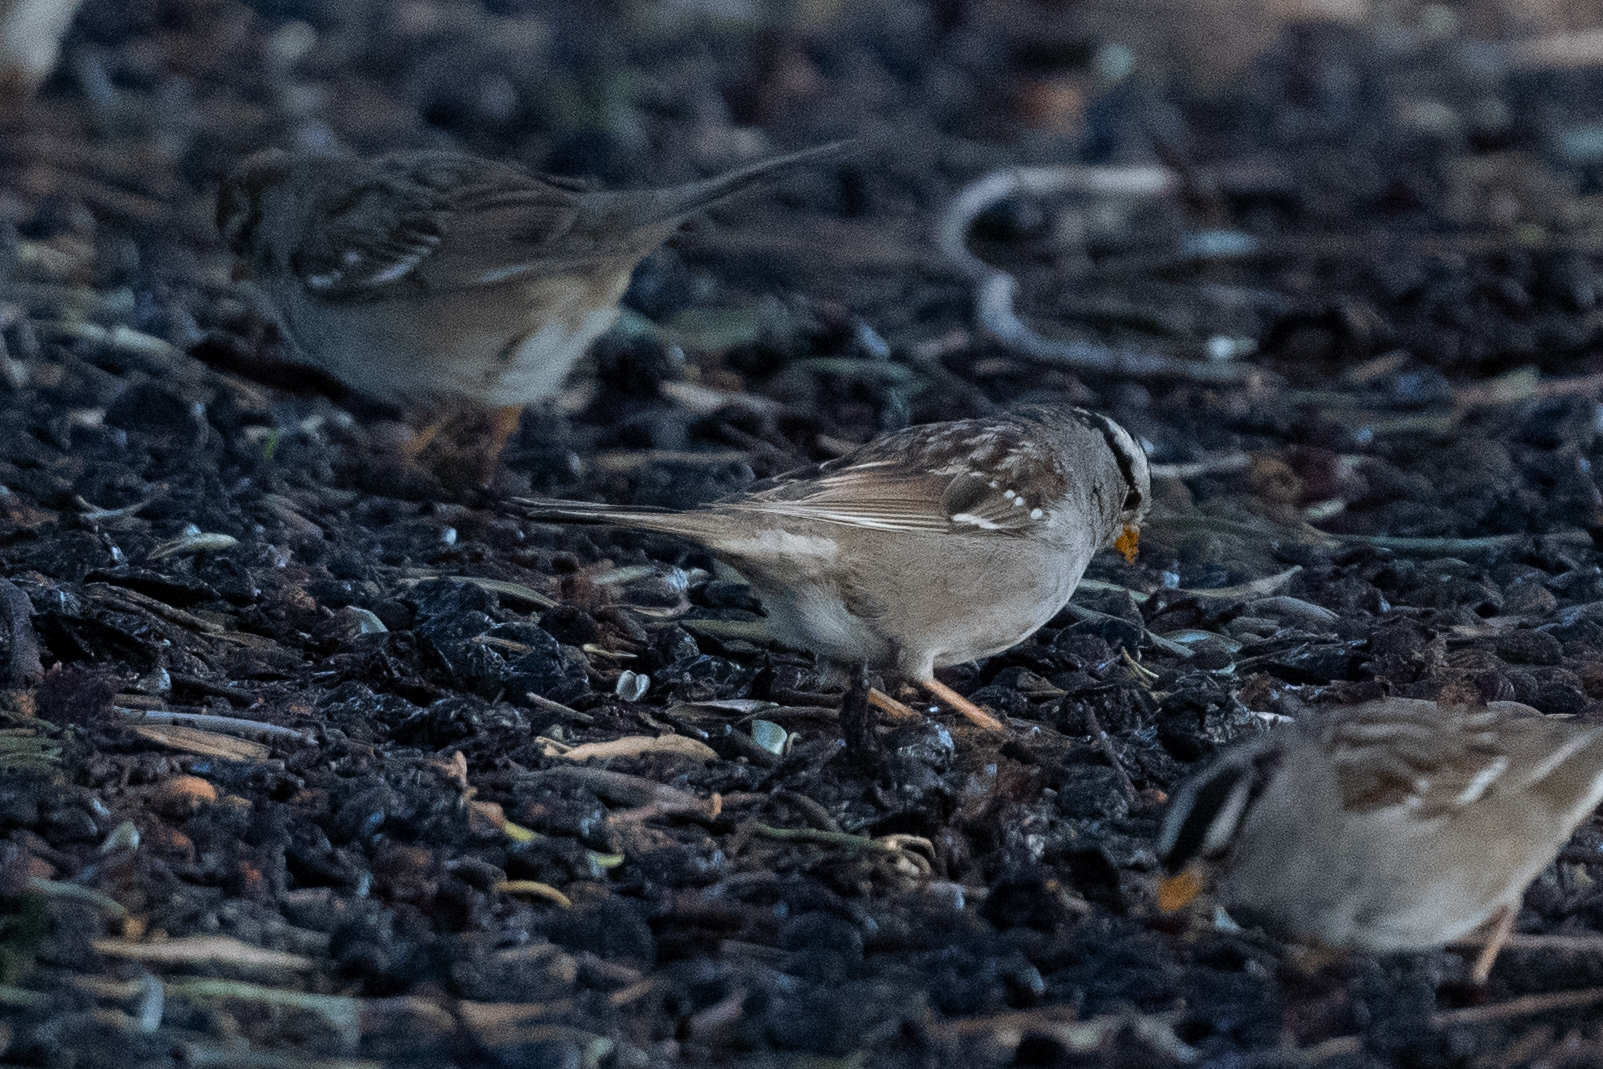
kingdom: Animalia
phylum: Chordata
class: Aves
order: Passeriformes
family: Passerellidae
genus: Zonotrichia
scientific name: Zonotrichia leucophrys
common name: White-crowned sparrow
